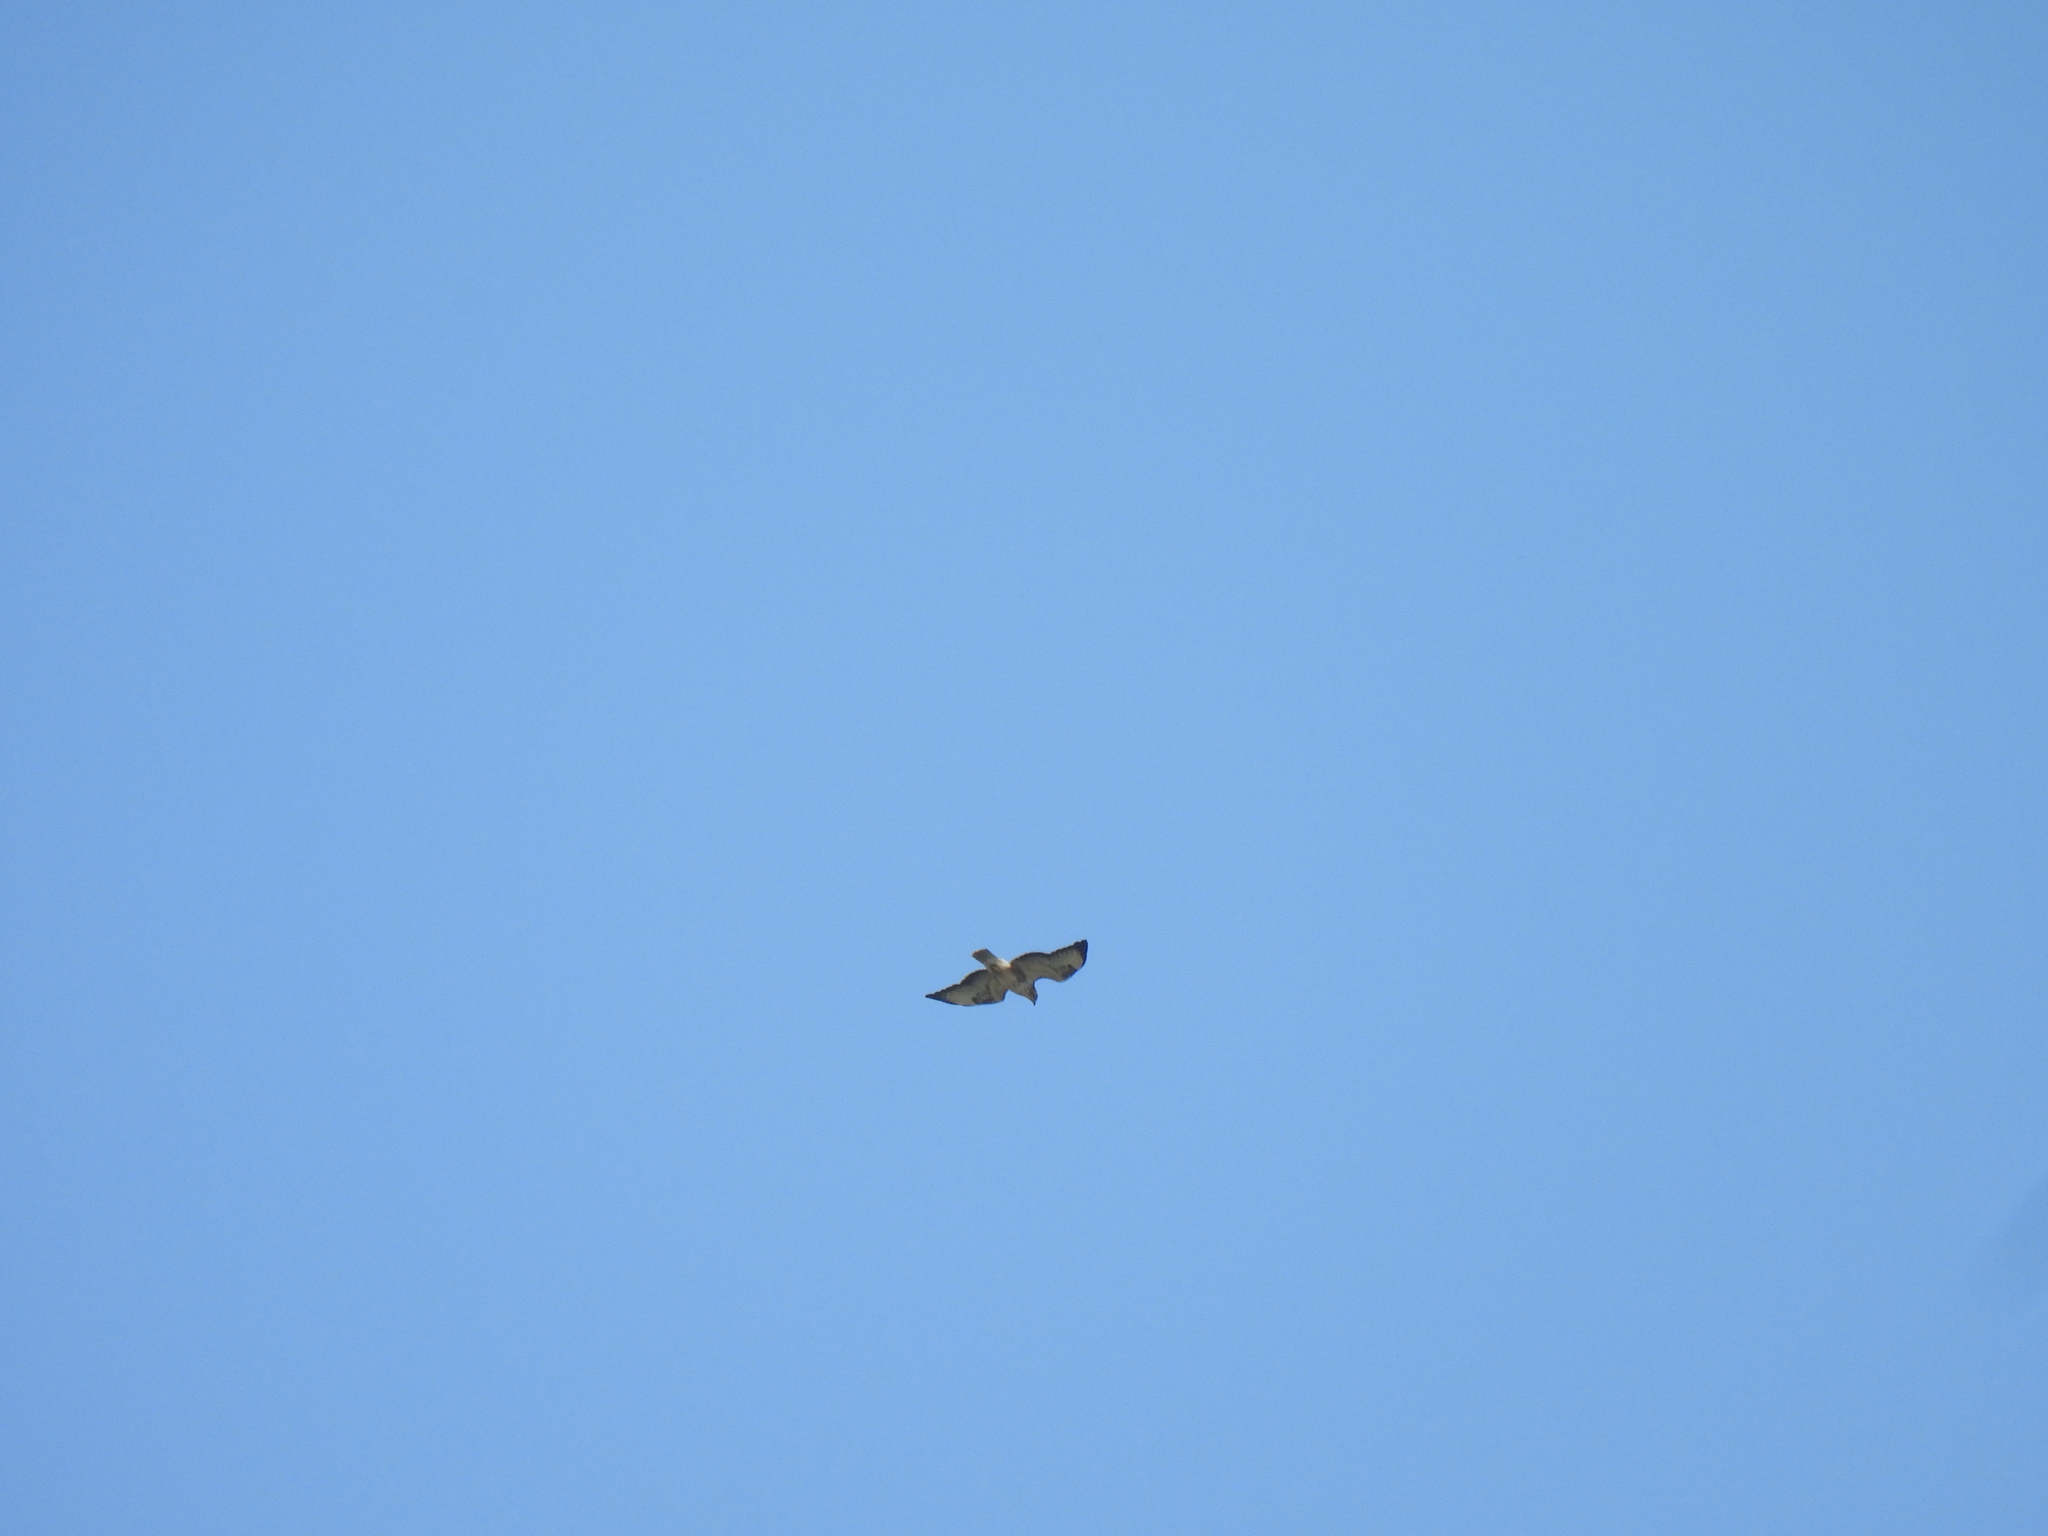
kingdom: Animalia
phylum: Chordata
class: Aves
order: Accipitriformes
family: Accipitridae
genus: Buteo
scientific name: Buteo buteo
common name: Common buzzard
